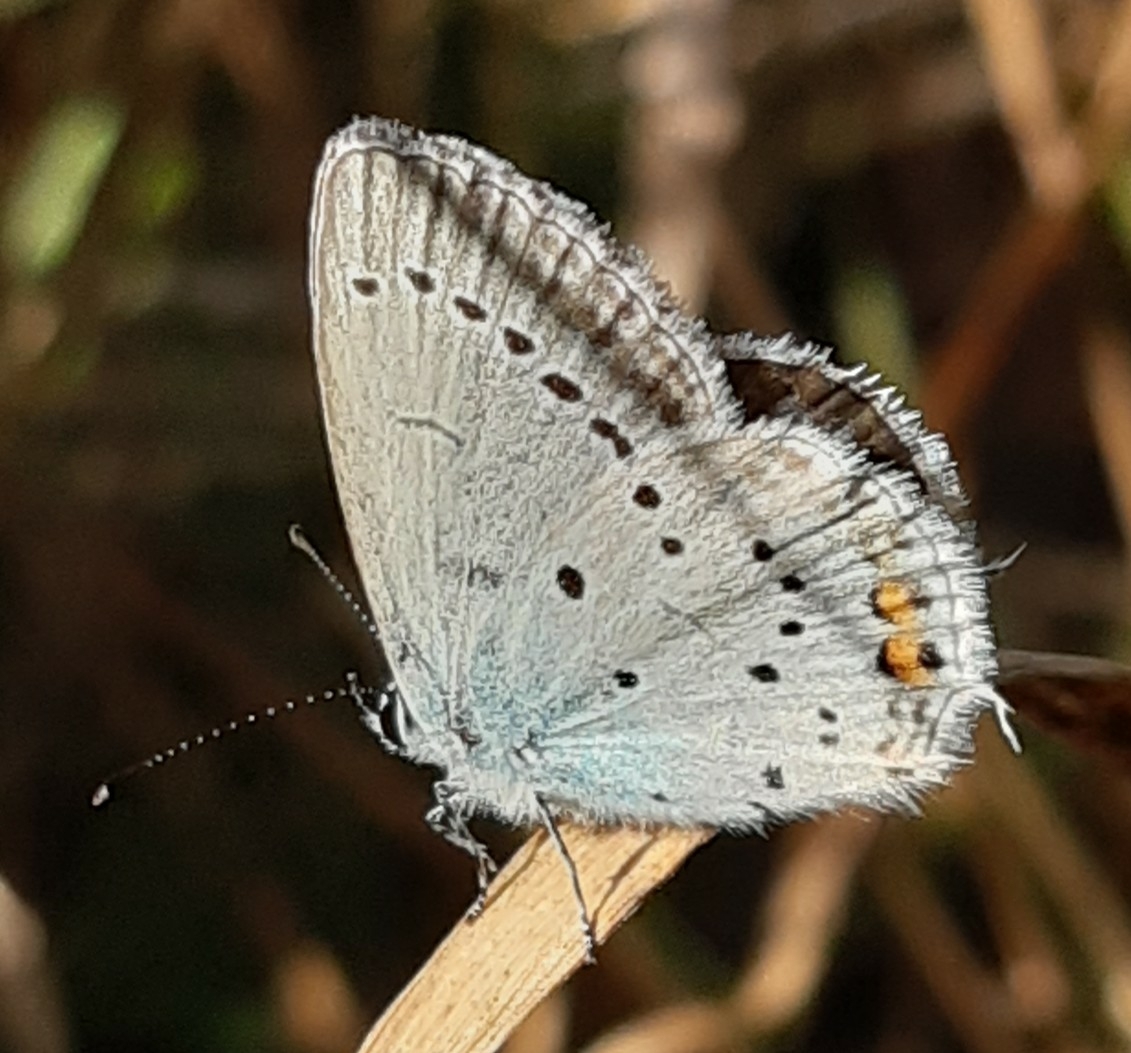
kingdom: Animalia
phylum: Arthropoda
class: Insecta
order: Lepidoptera
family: Lycaenidae
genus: Elkalyce
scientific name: Elkalyce argiades
